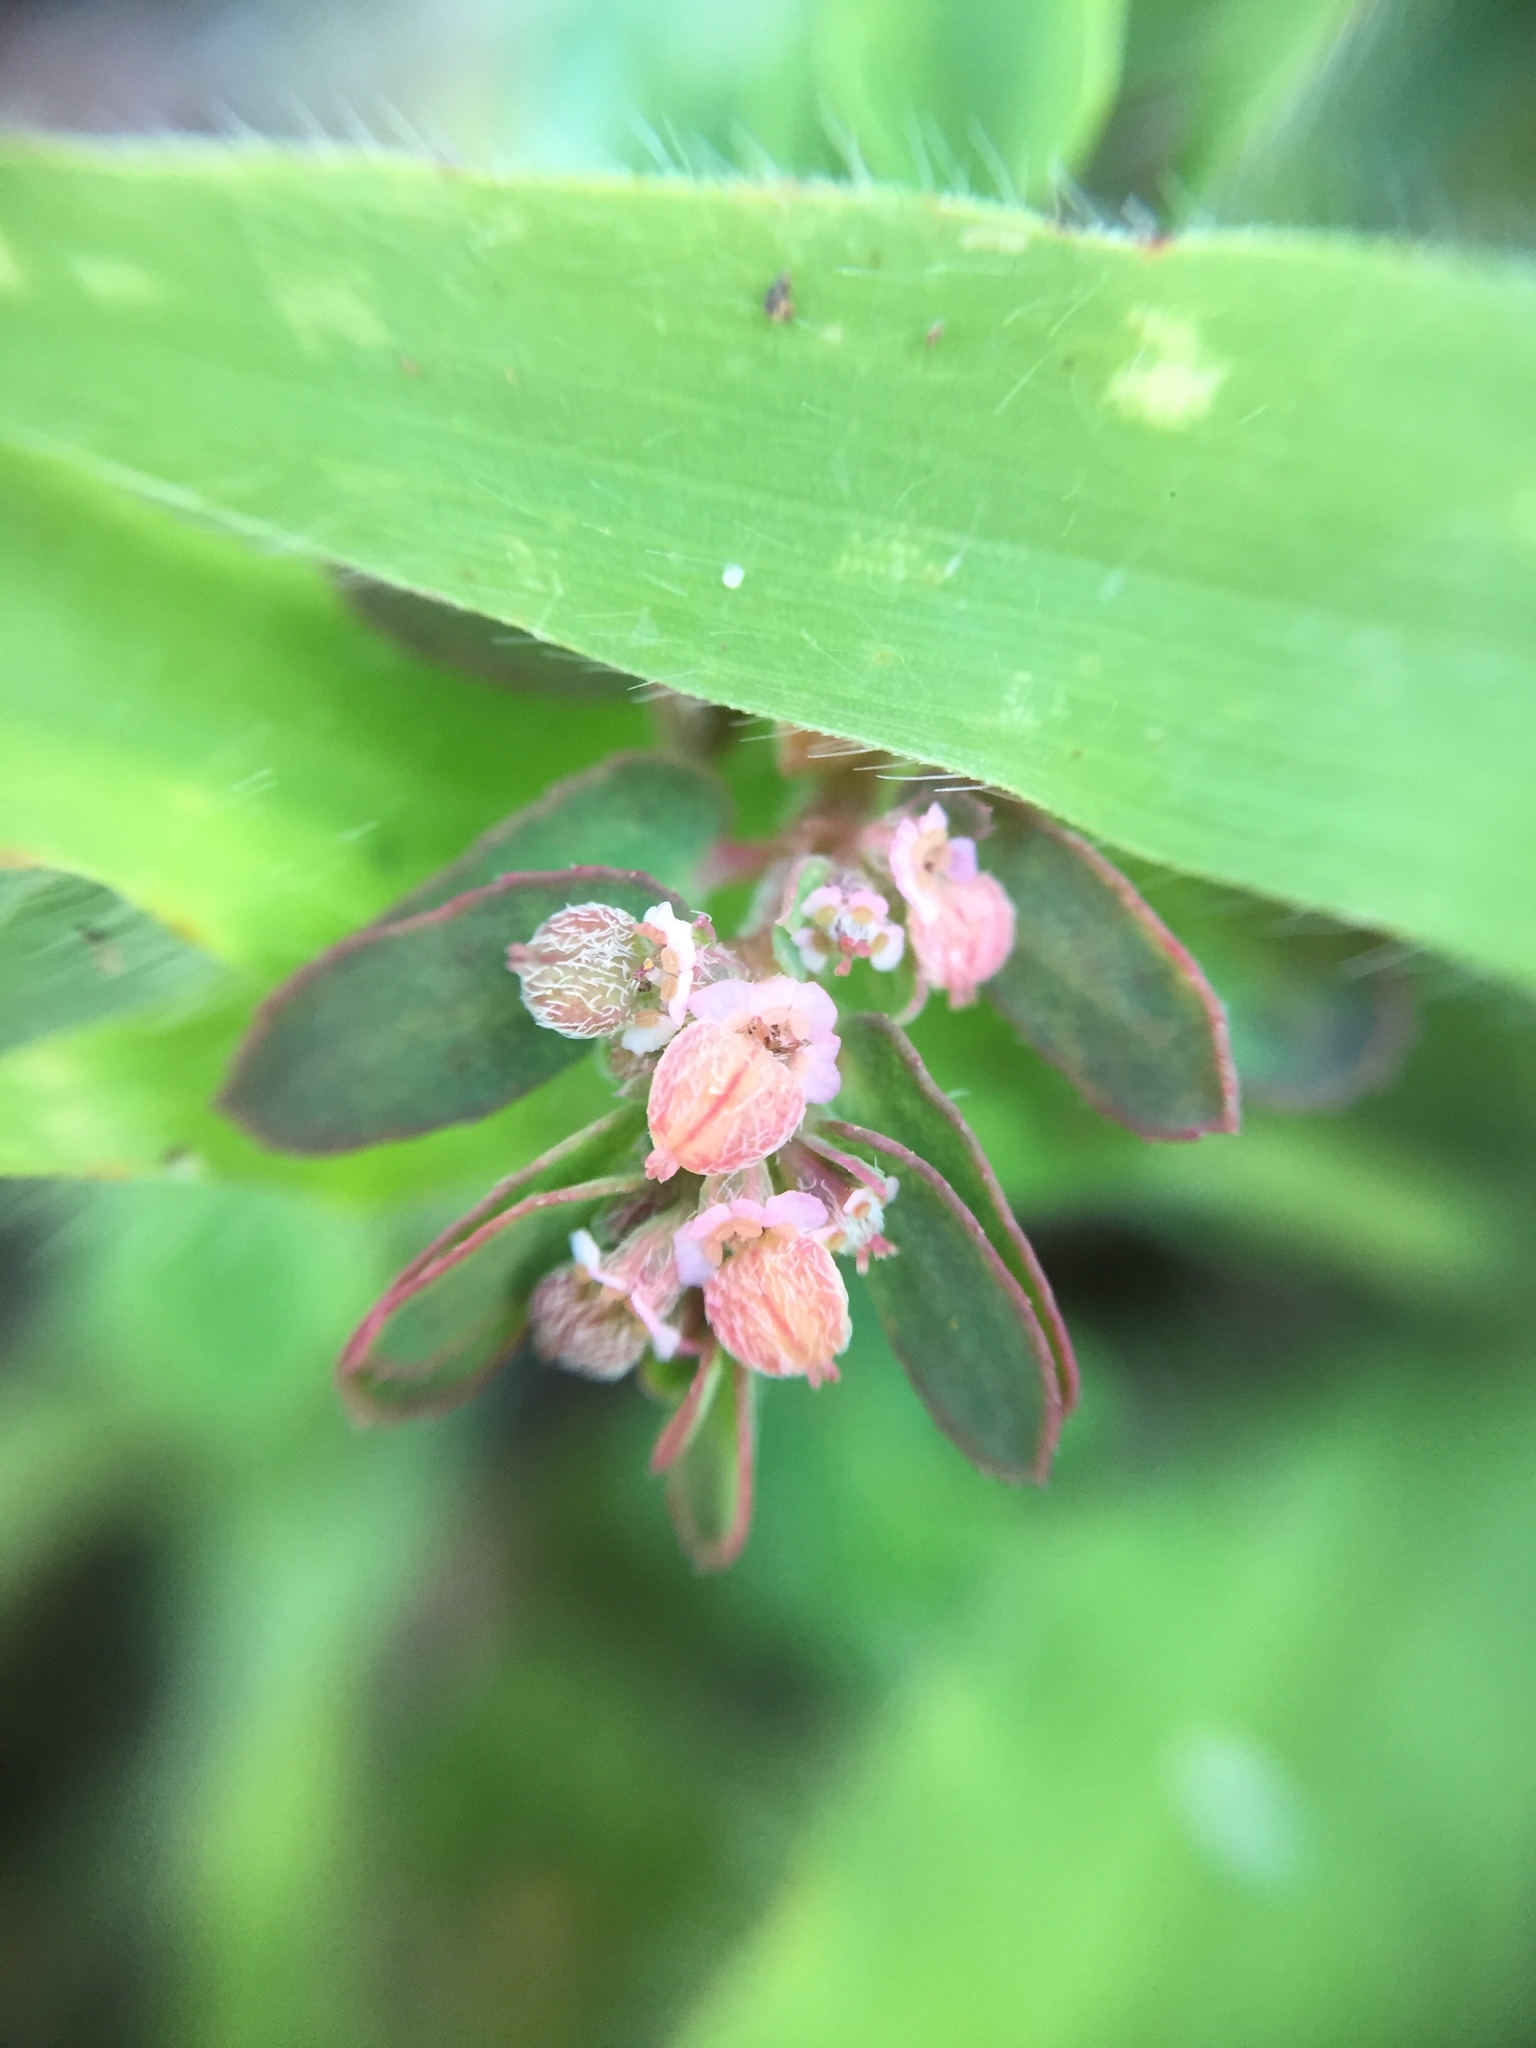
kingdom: Plantae
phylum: Tracheophyta
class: Magnoliopsida
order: Malpighiales
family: Euphorbiaceae
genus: Euphorbia
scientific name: Euphorbia maculata
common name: Spotted spurge
